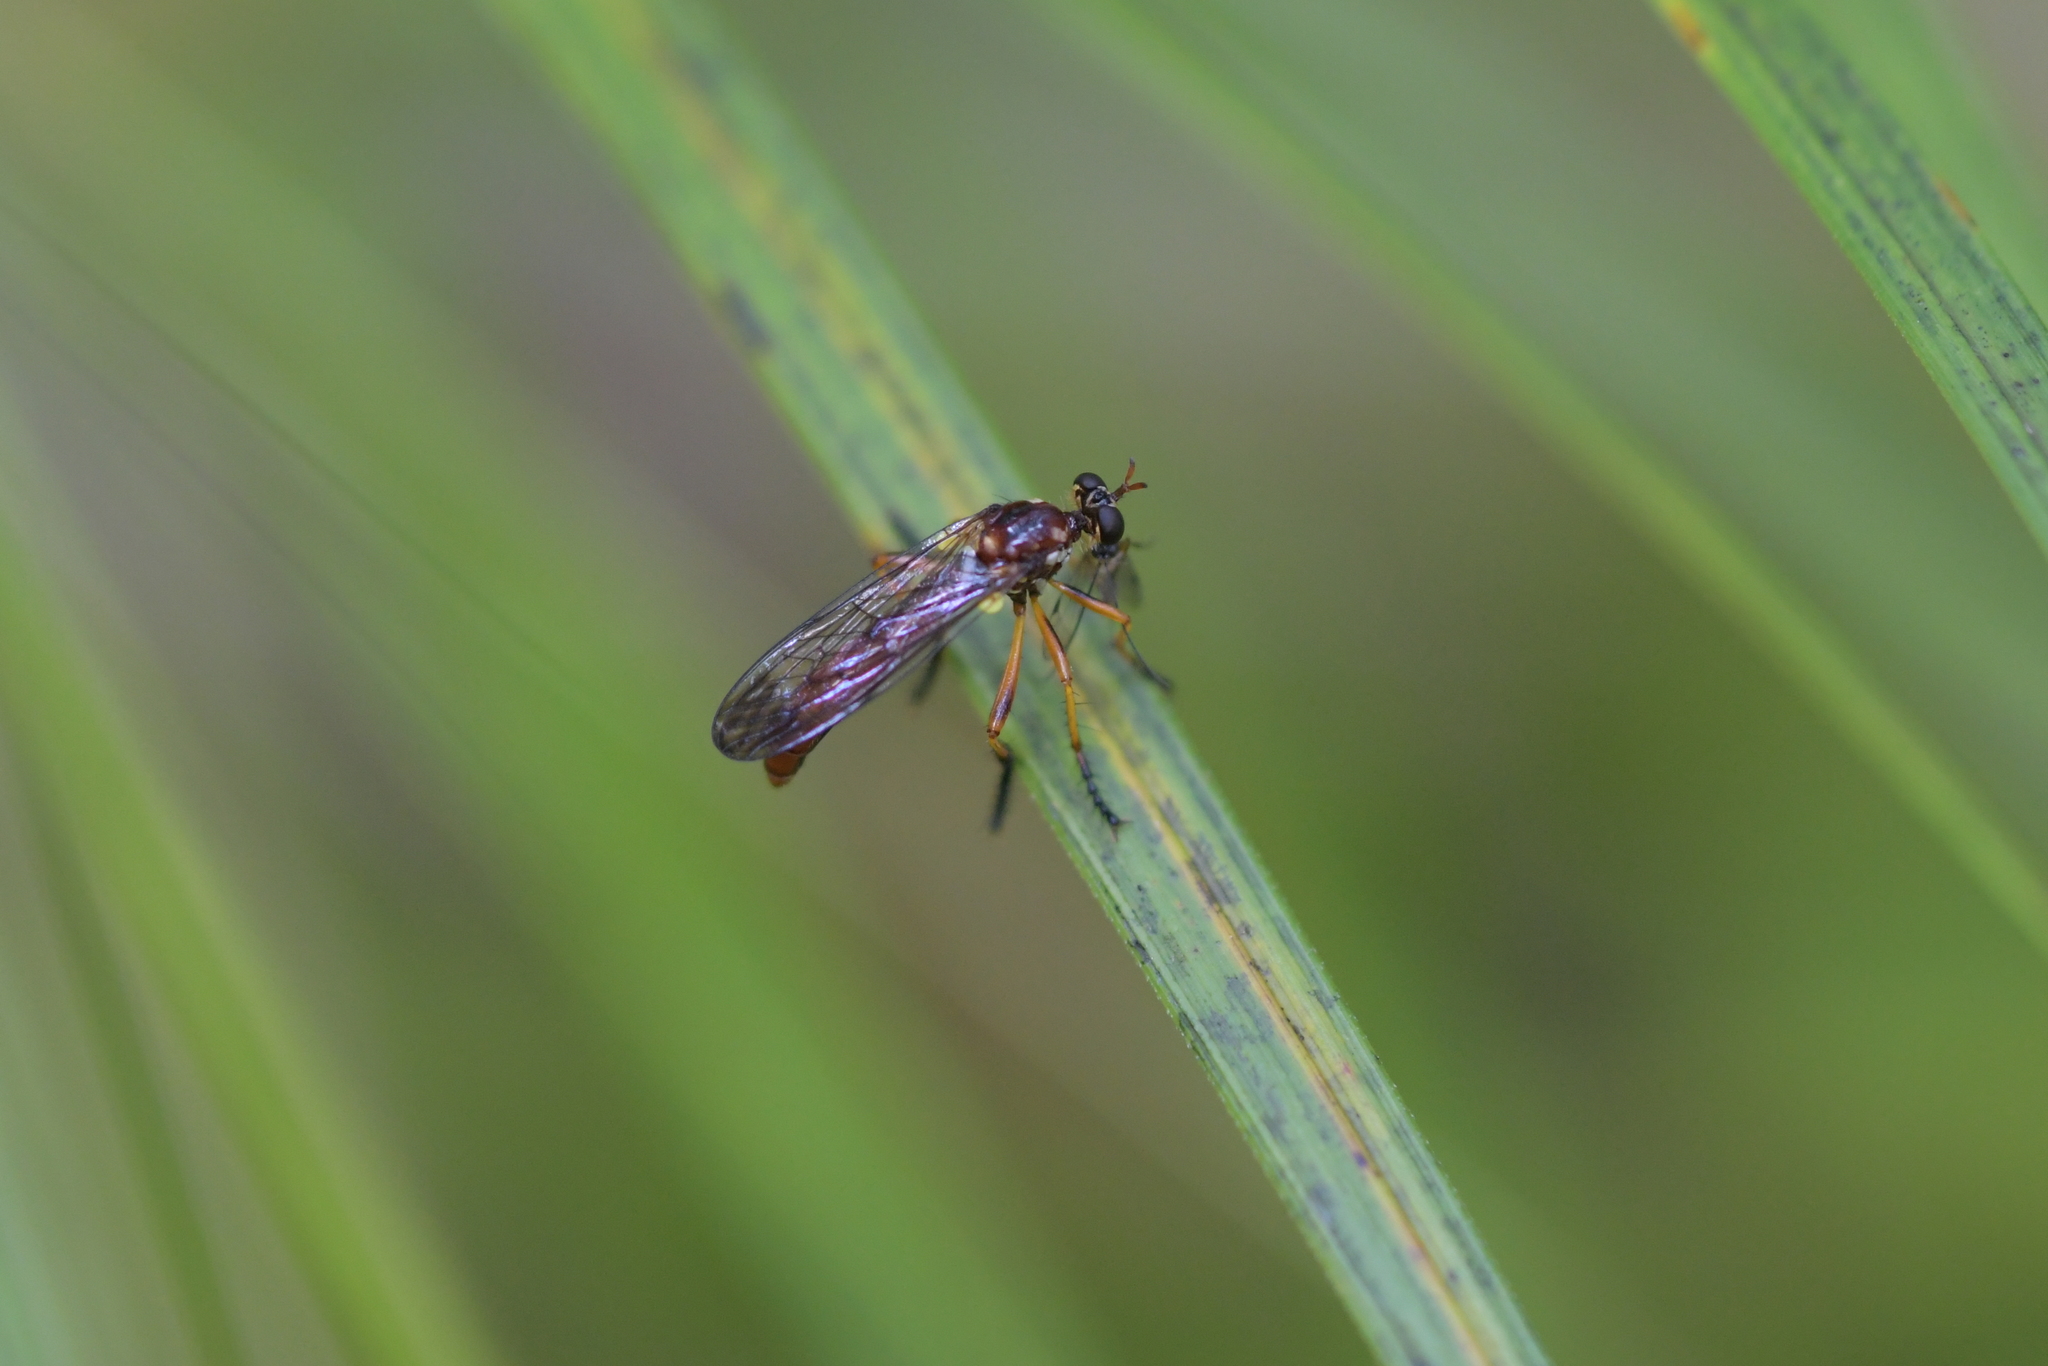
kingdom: Animalia
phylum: Arthropoda
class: Insecta
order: Diptera
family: Asilidae
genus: Saropogon
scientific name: Saropogon antipodus
